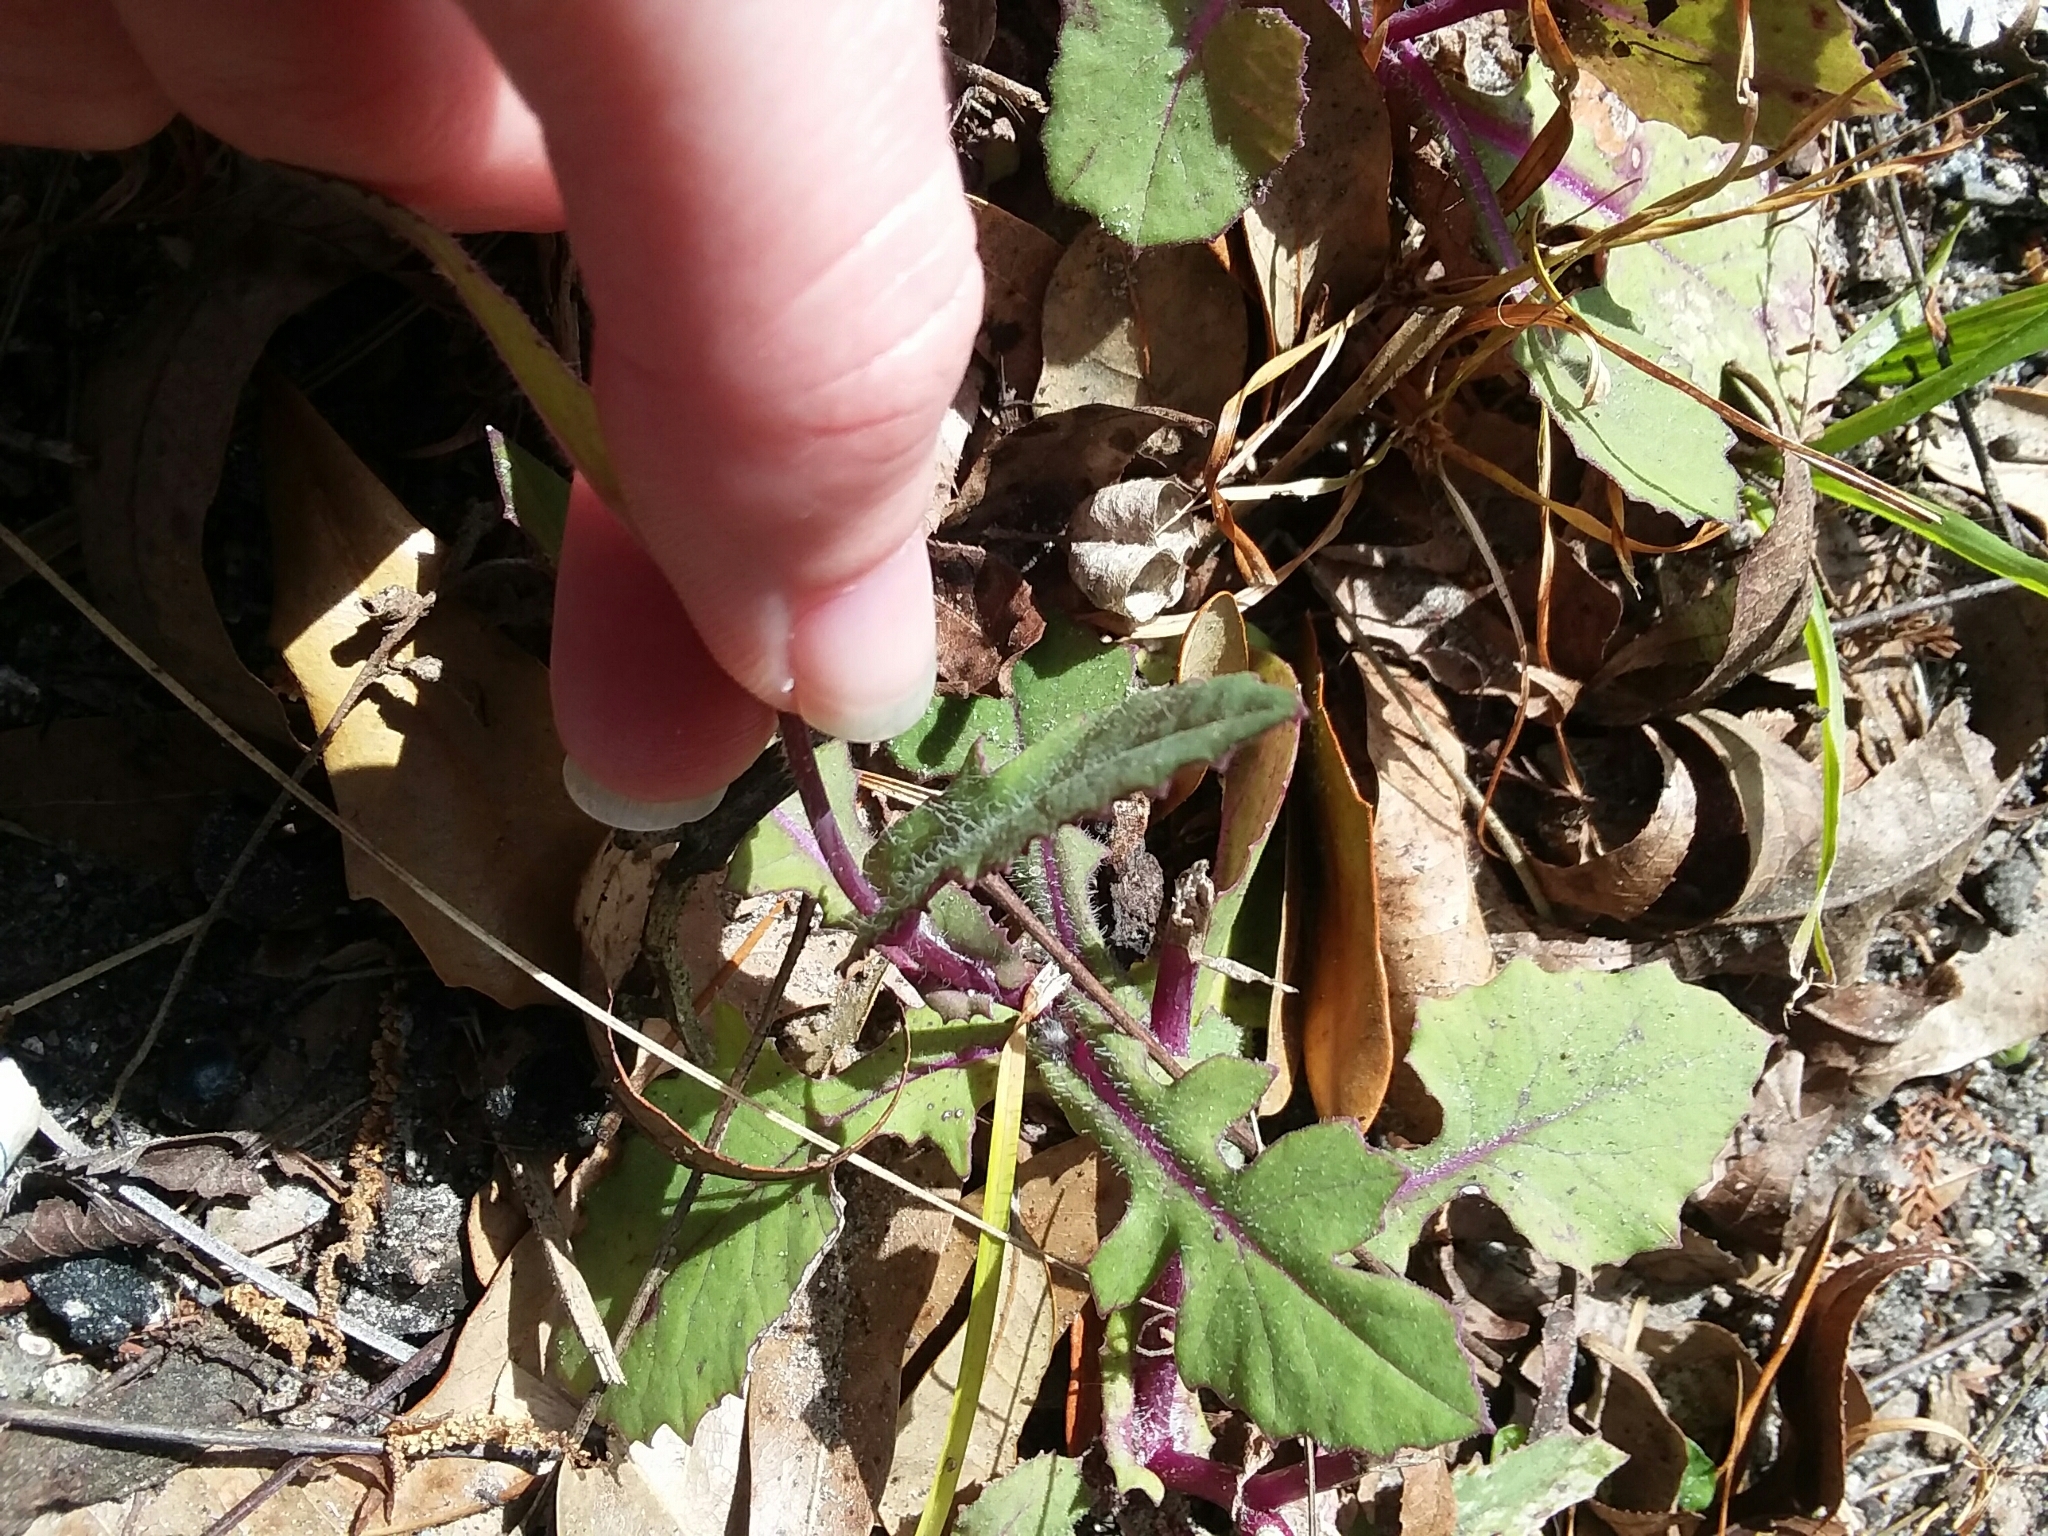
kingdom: Plantae
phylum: Tracheophyta
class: Magnoliopsida
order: Asterales
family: Asteraceae
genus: Emilia
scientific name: Emilia sonchifolia
